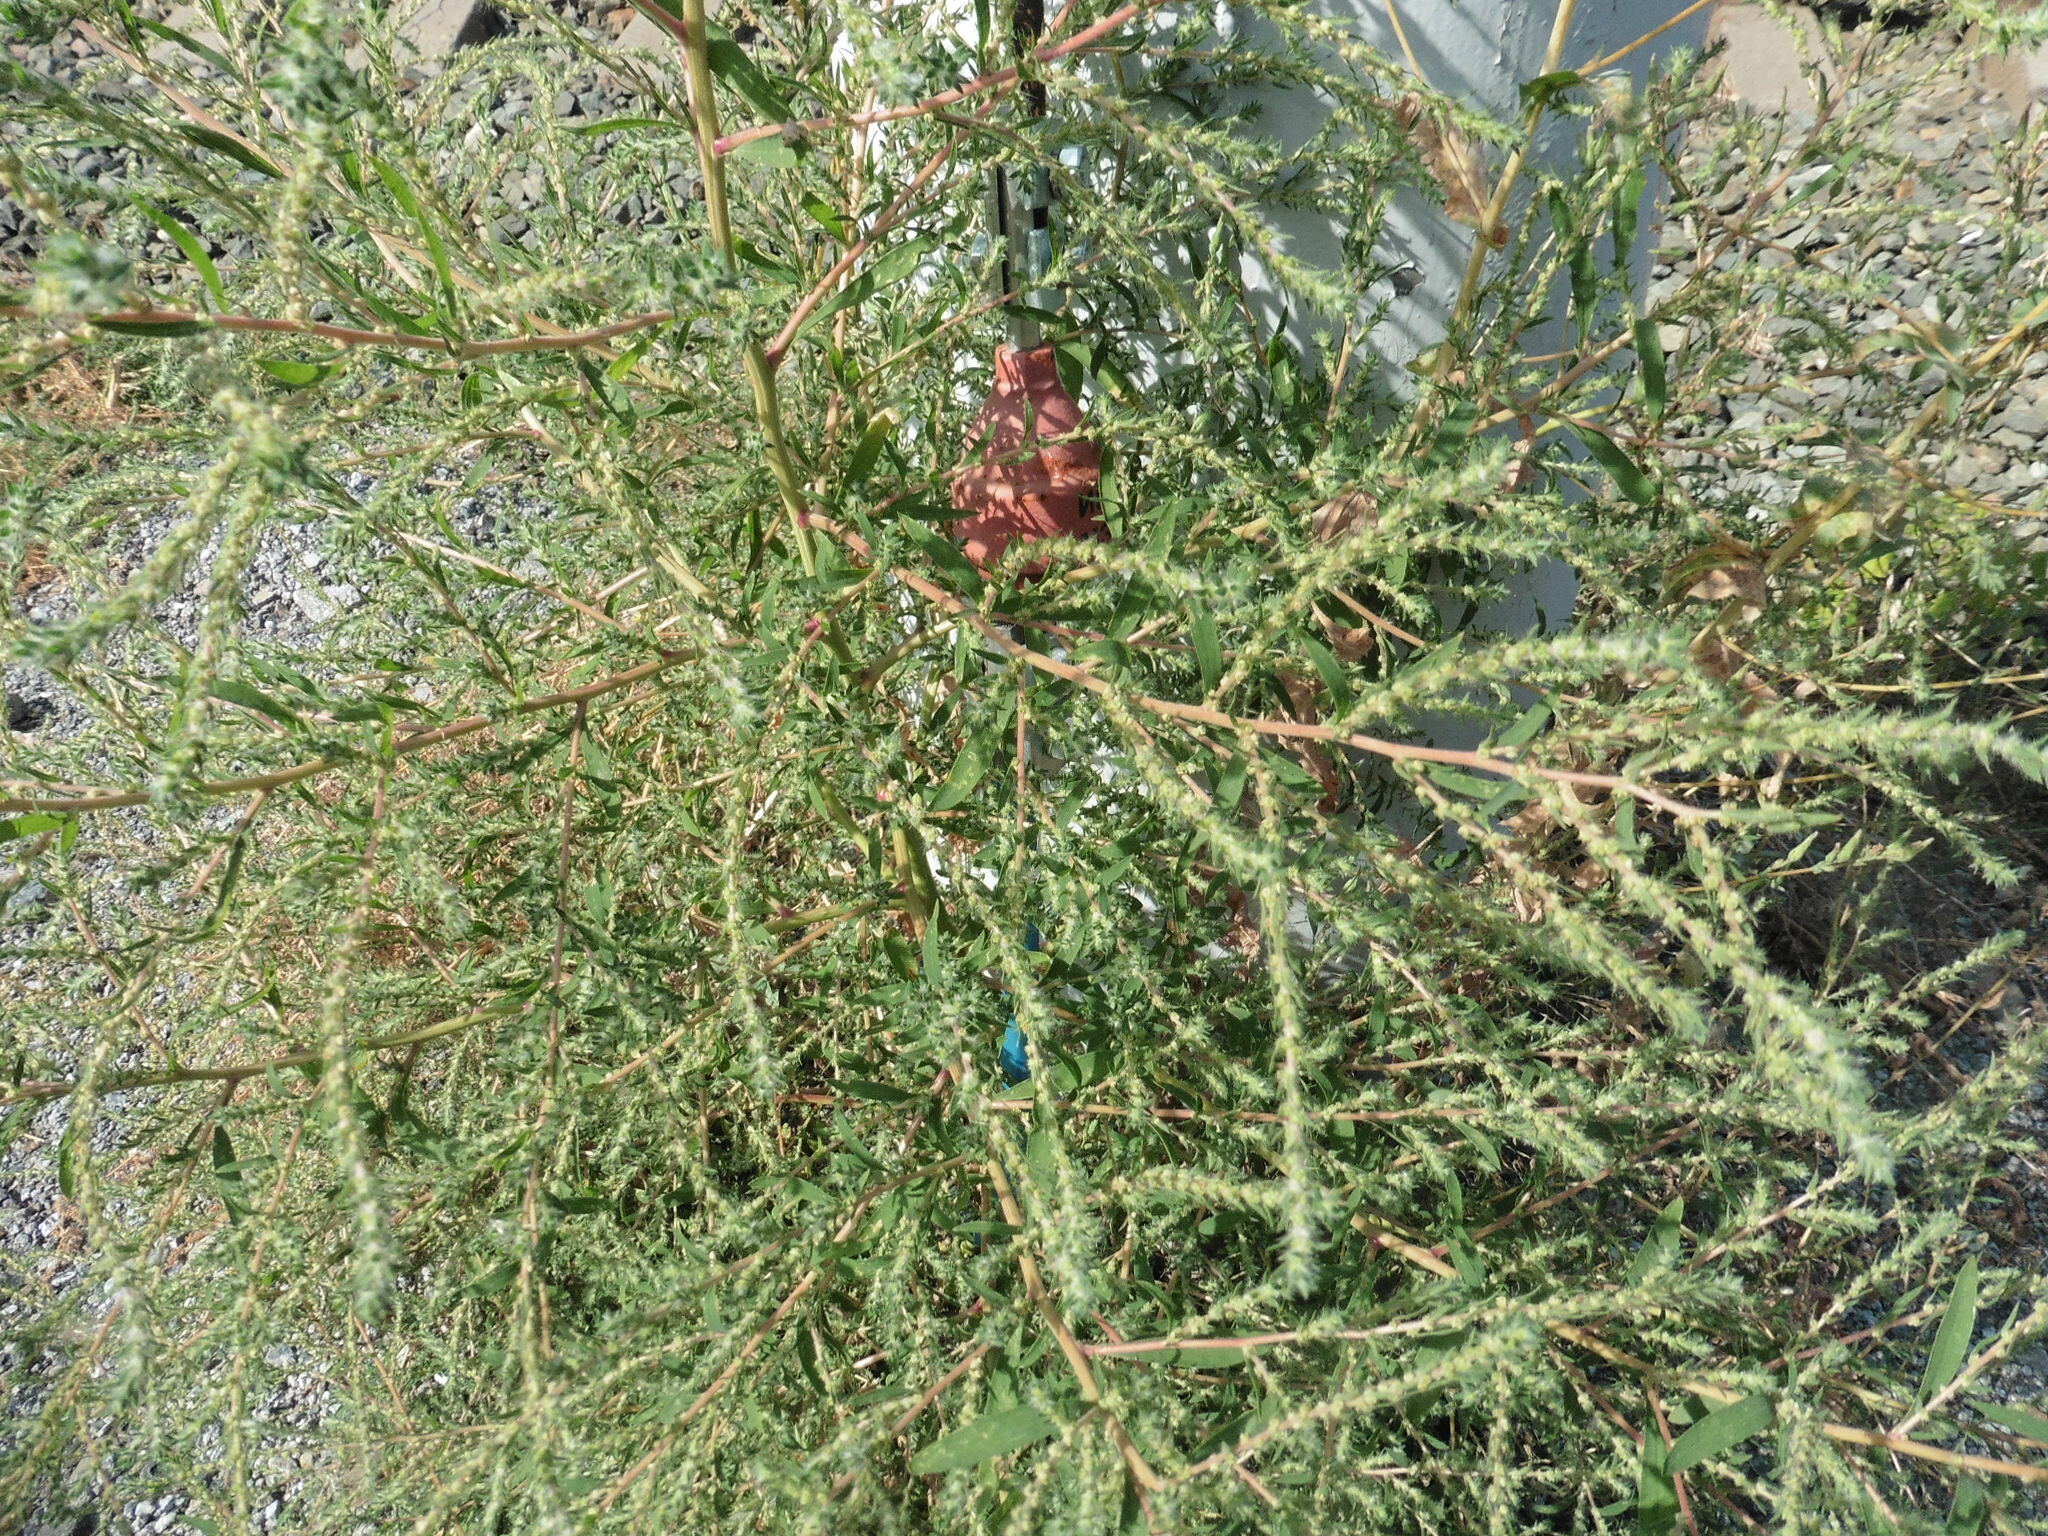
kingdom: Plantae
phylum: Tracheophyta
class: Magnoliopsida
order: Caryophyllales
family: Amaranthaceae
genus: Bassia
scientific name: Bassia scoparia
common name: Belvedere
